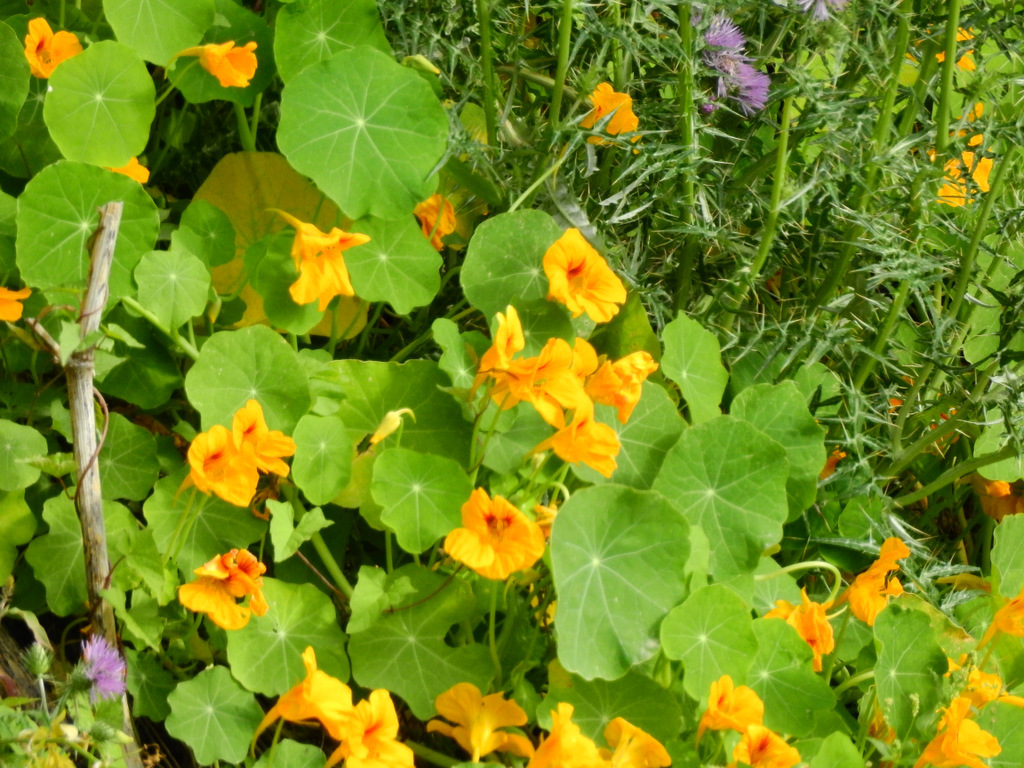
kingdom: Plantae
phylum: Tracheophyta
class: Magnoliopsida
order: Brassicales
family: Tropaeolaceae
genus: Tropaeolum
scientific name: Tropaeolum majus
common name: Nasturtium
